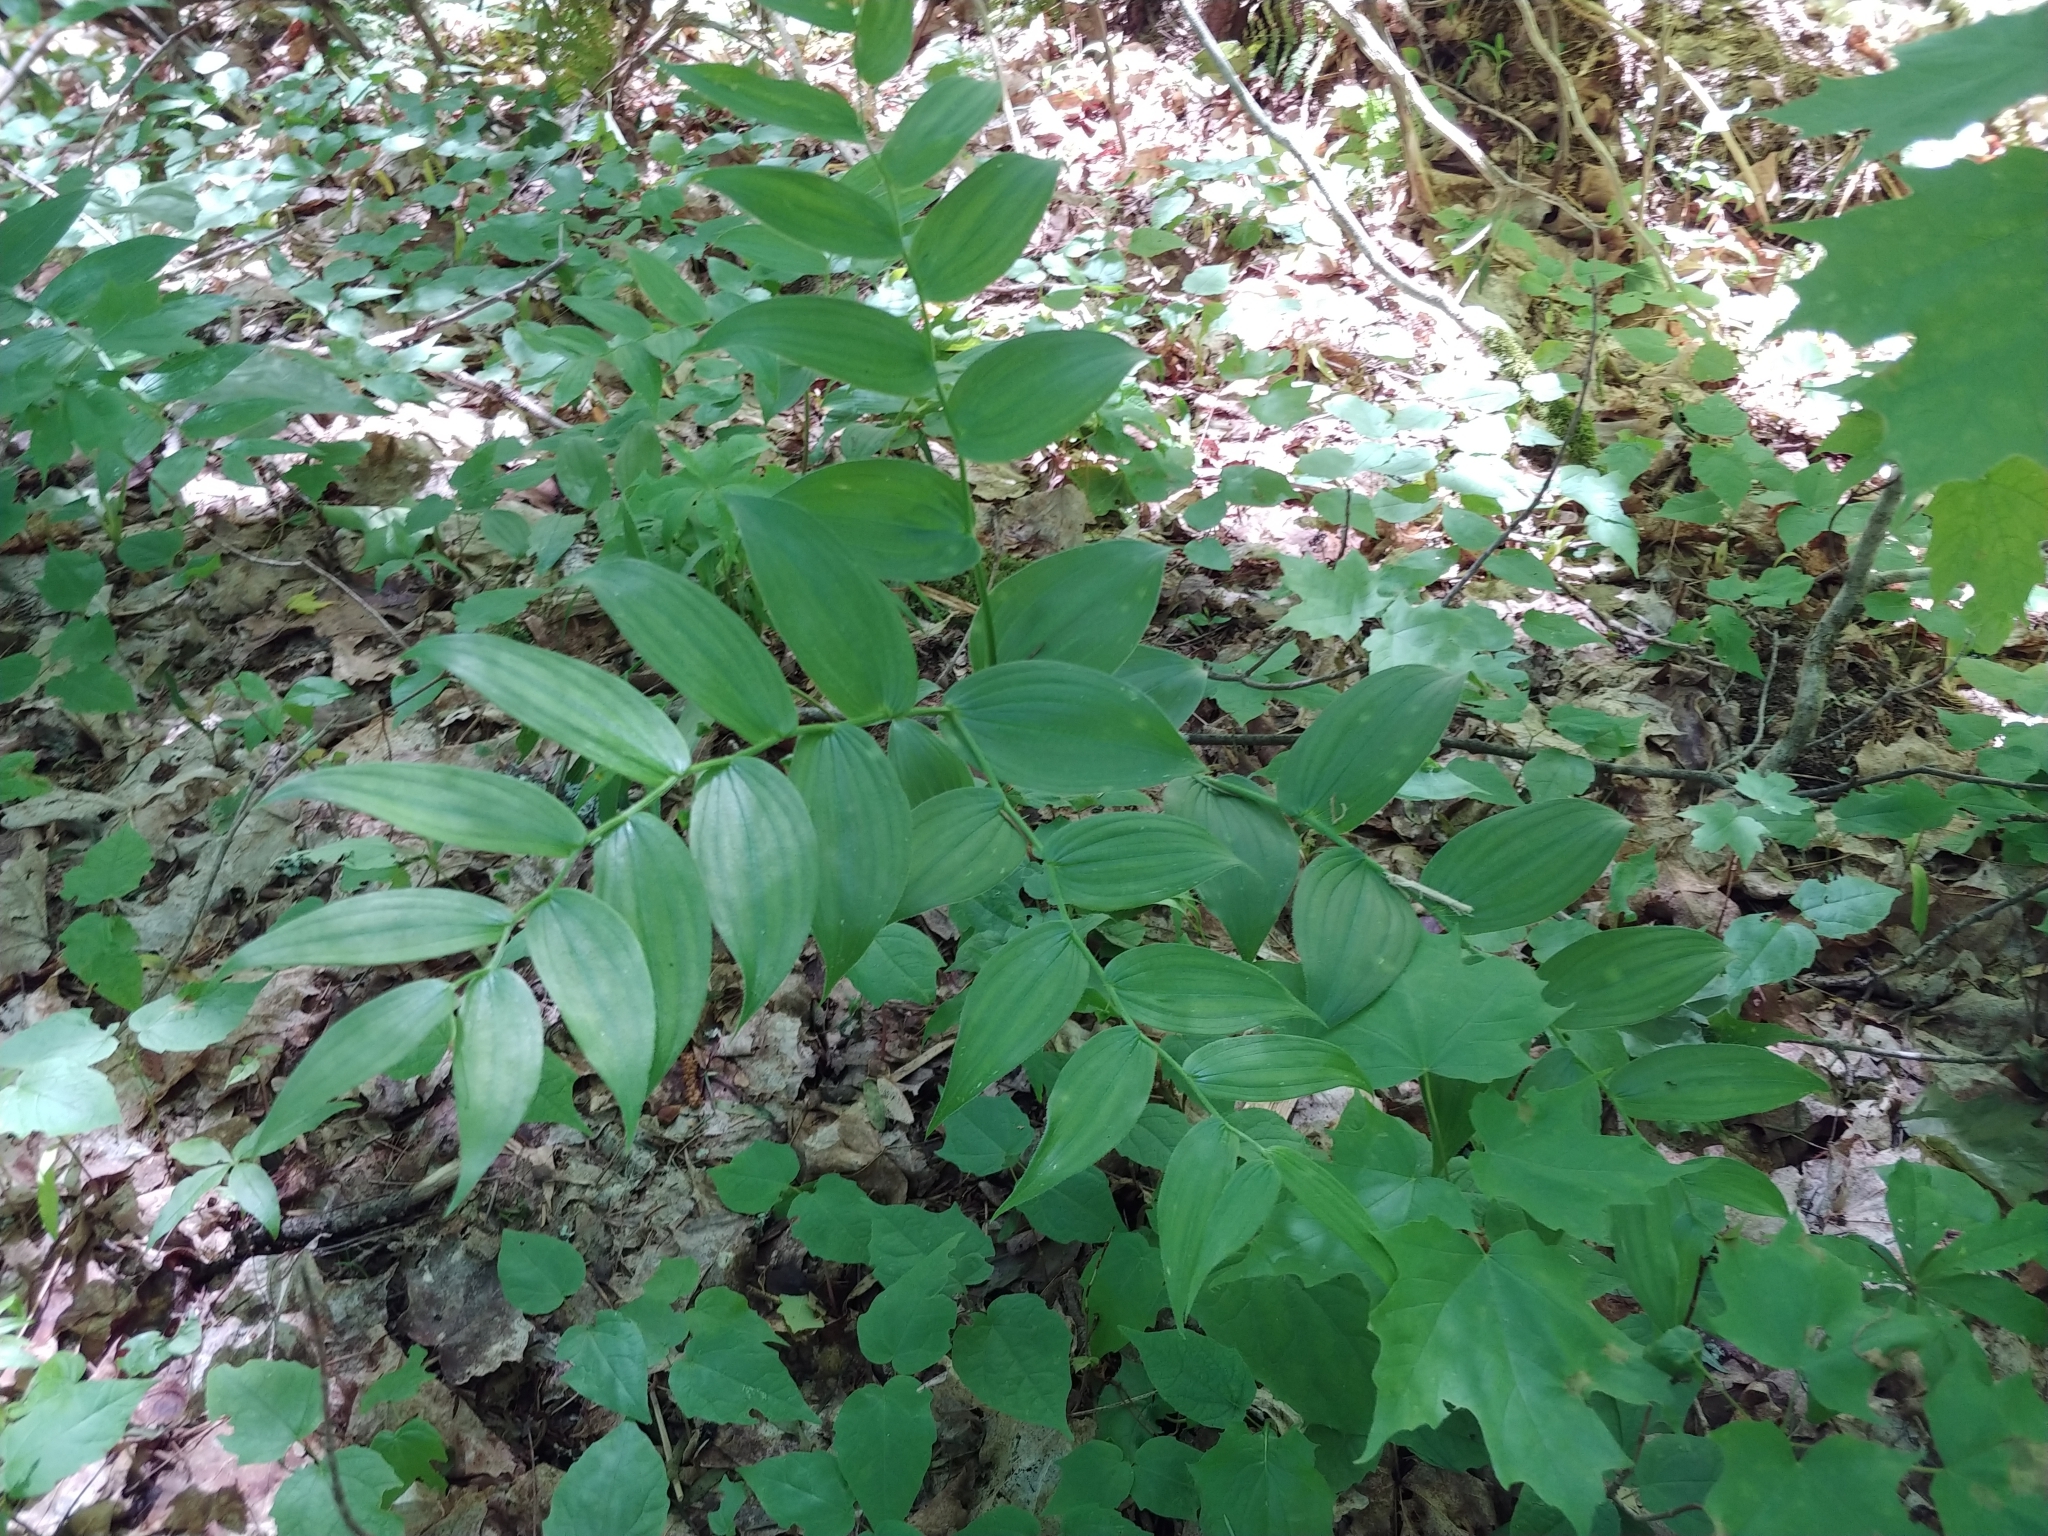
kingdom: Plantae
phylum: Tracheophyta
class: Liliopsida
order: Liliales
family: Liliaceae
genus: Streptopus
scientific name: Streptopus lanceolatus
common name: Rose mandarin
